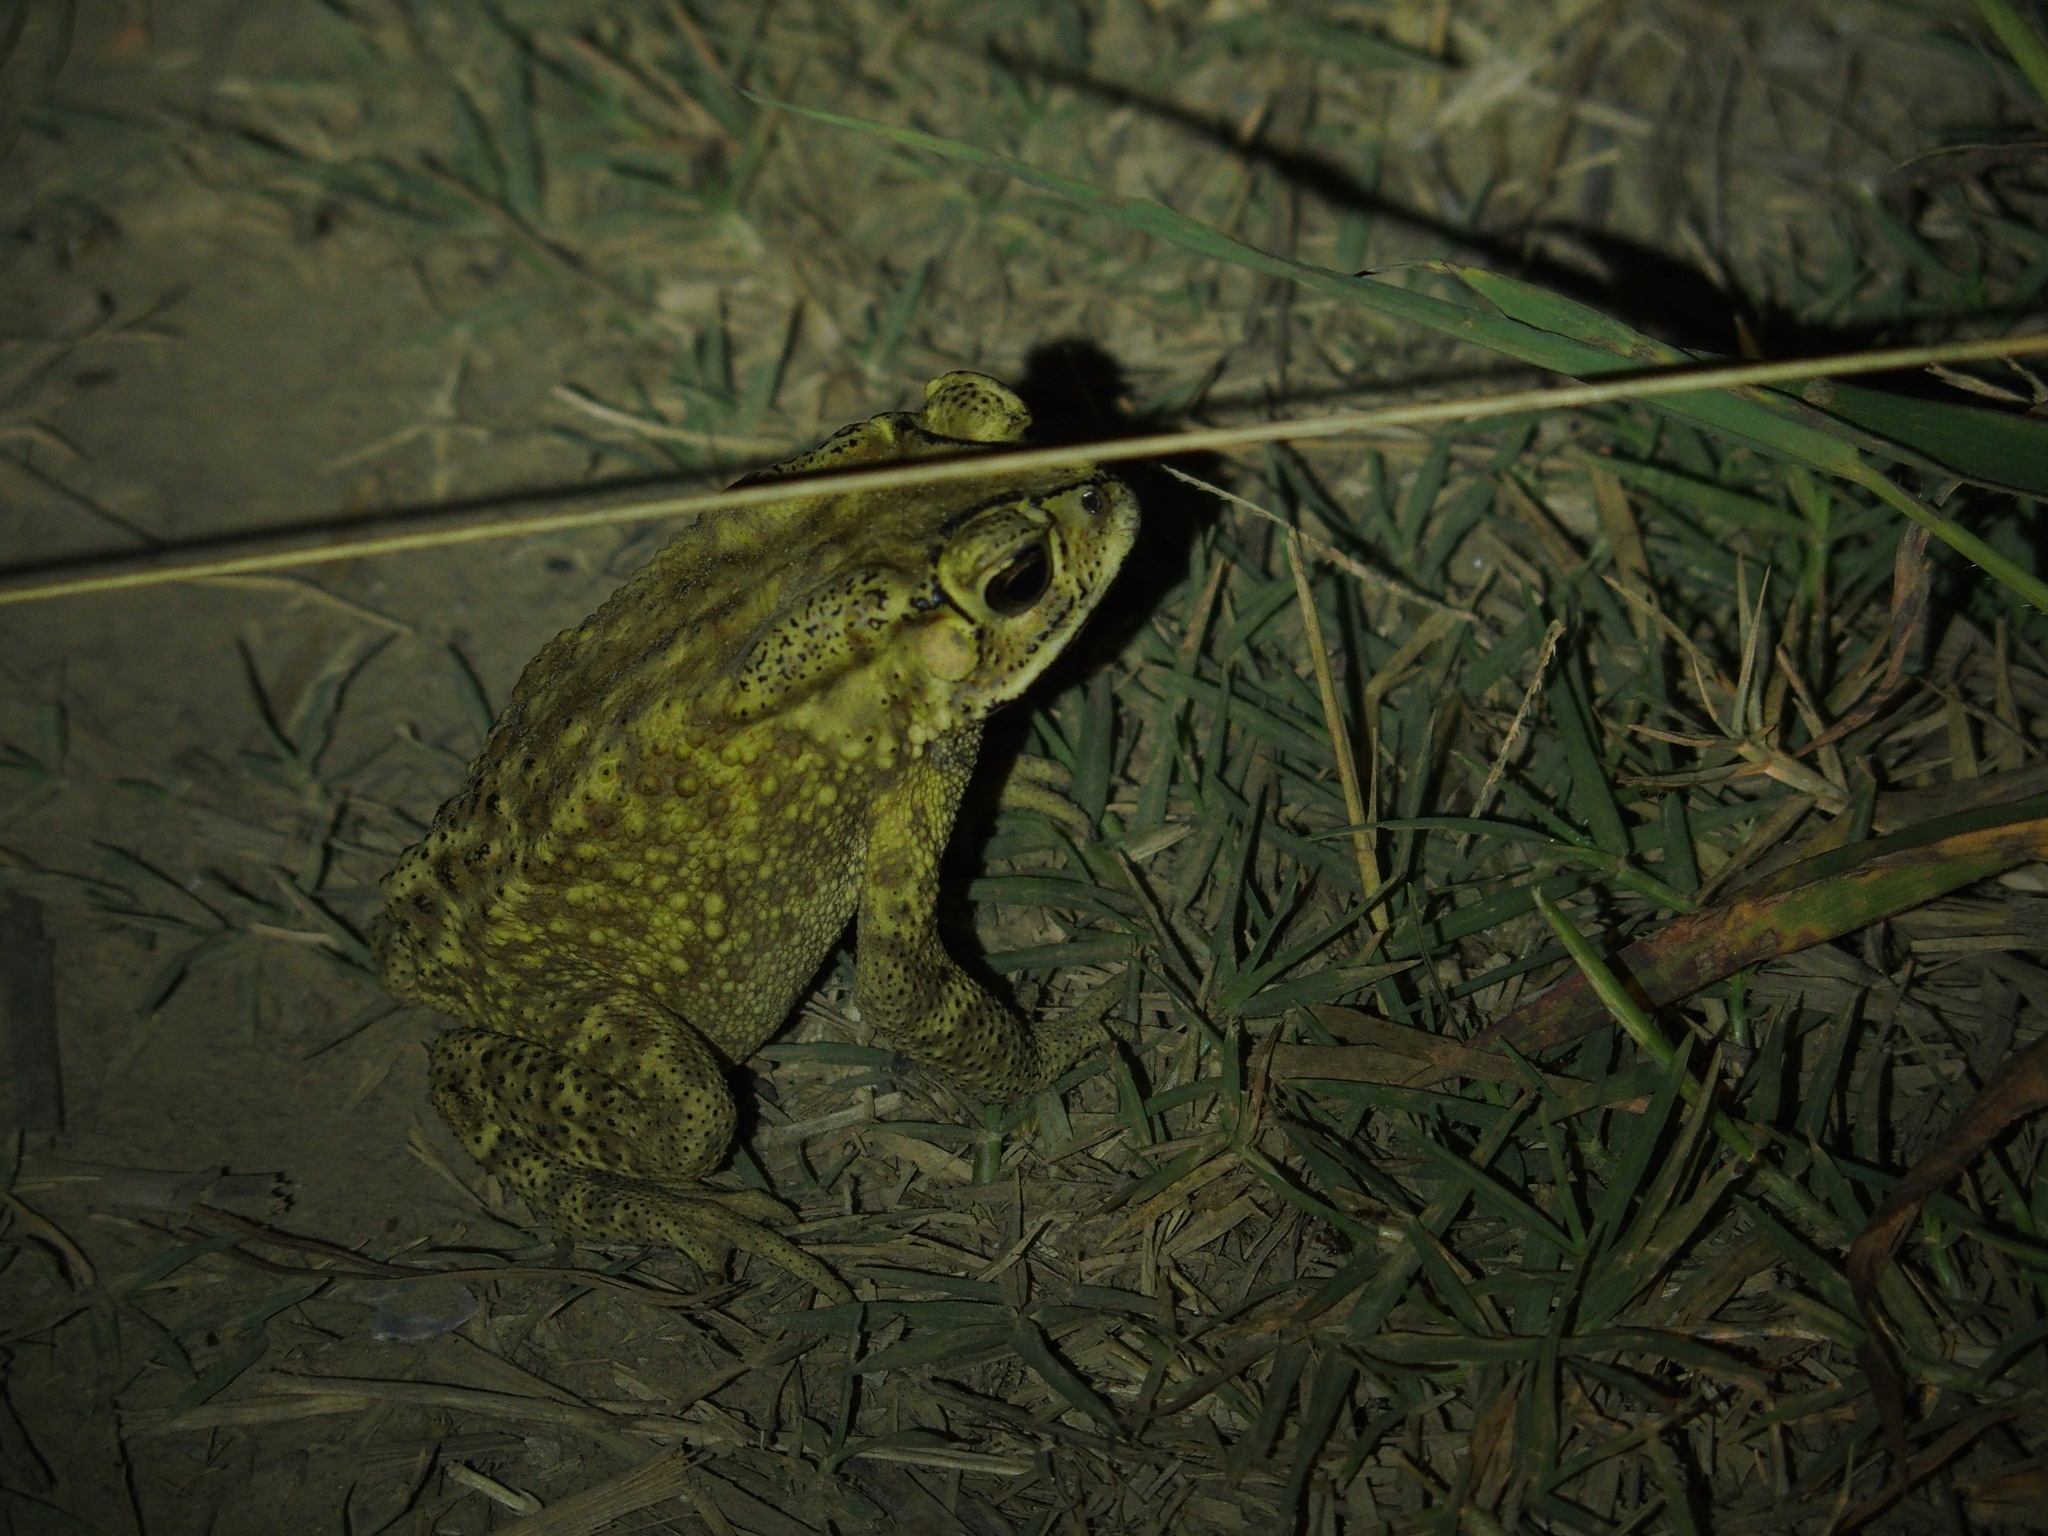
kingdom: Animalia
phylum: Chordata
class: Amphibia
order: Anura
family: Bufonidae
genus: Duttaphrynus
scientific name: Duttaphrynus melanostictus
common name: Common sunda toad
